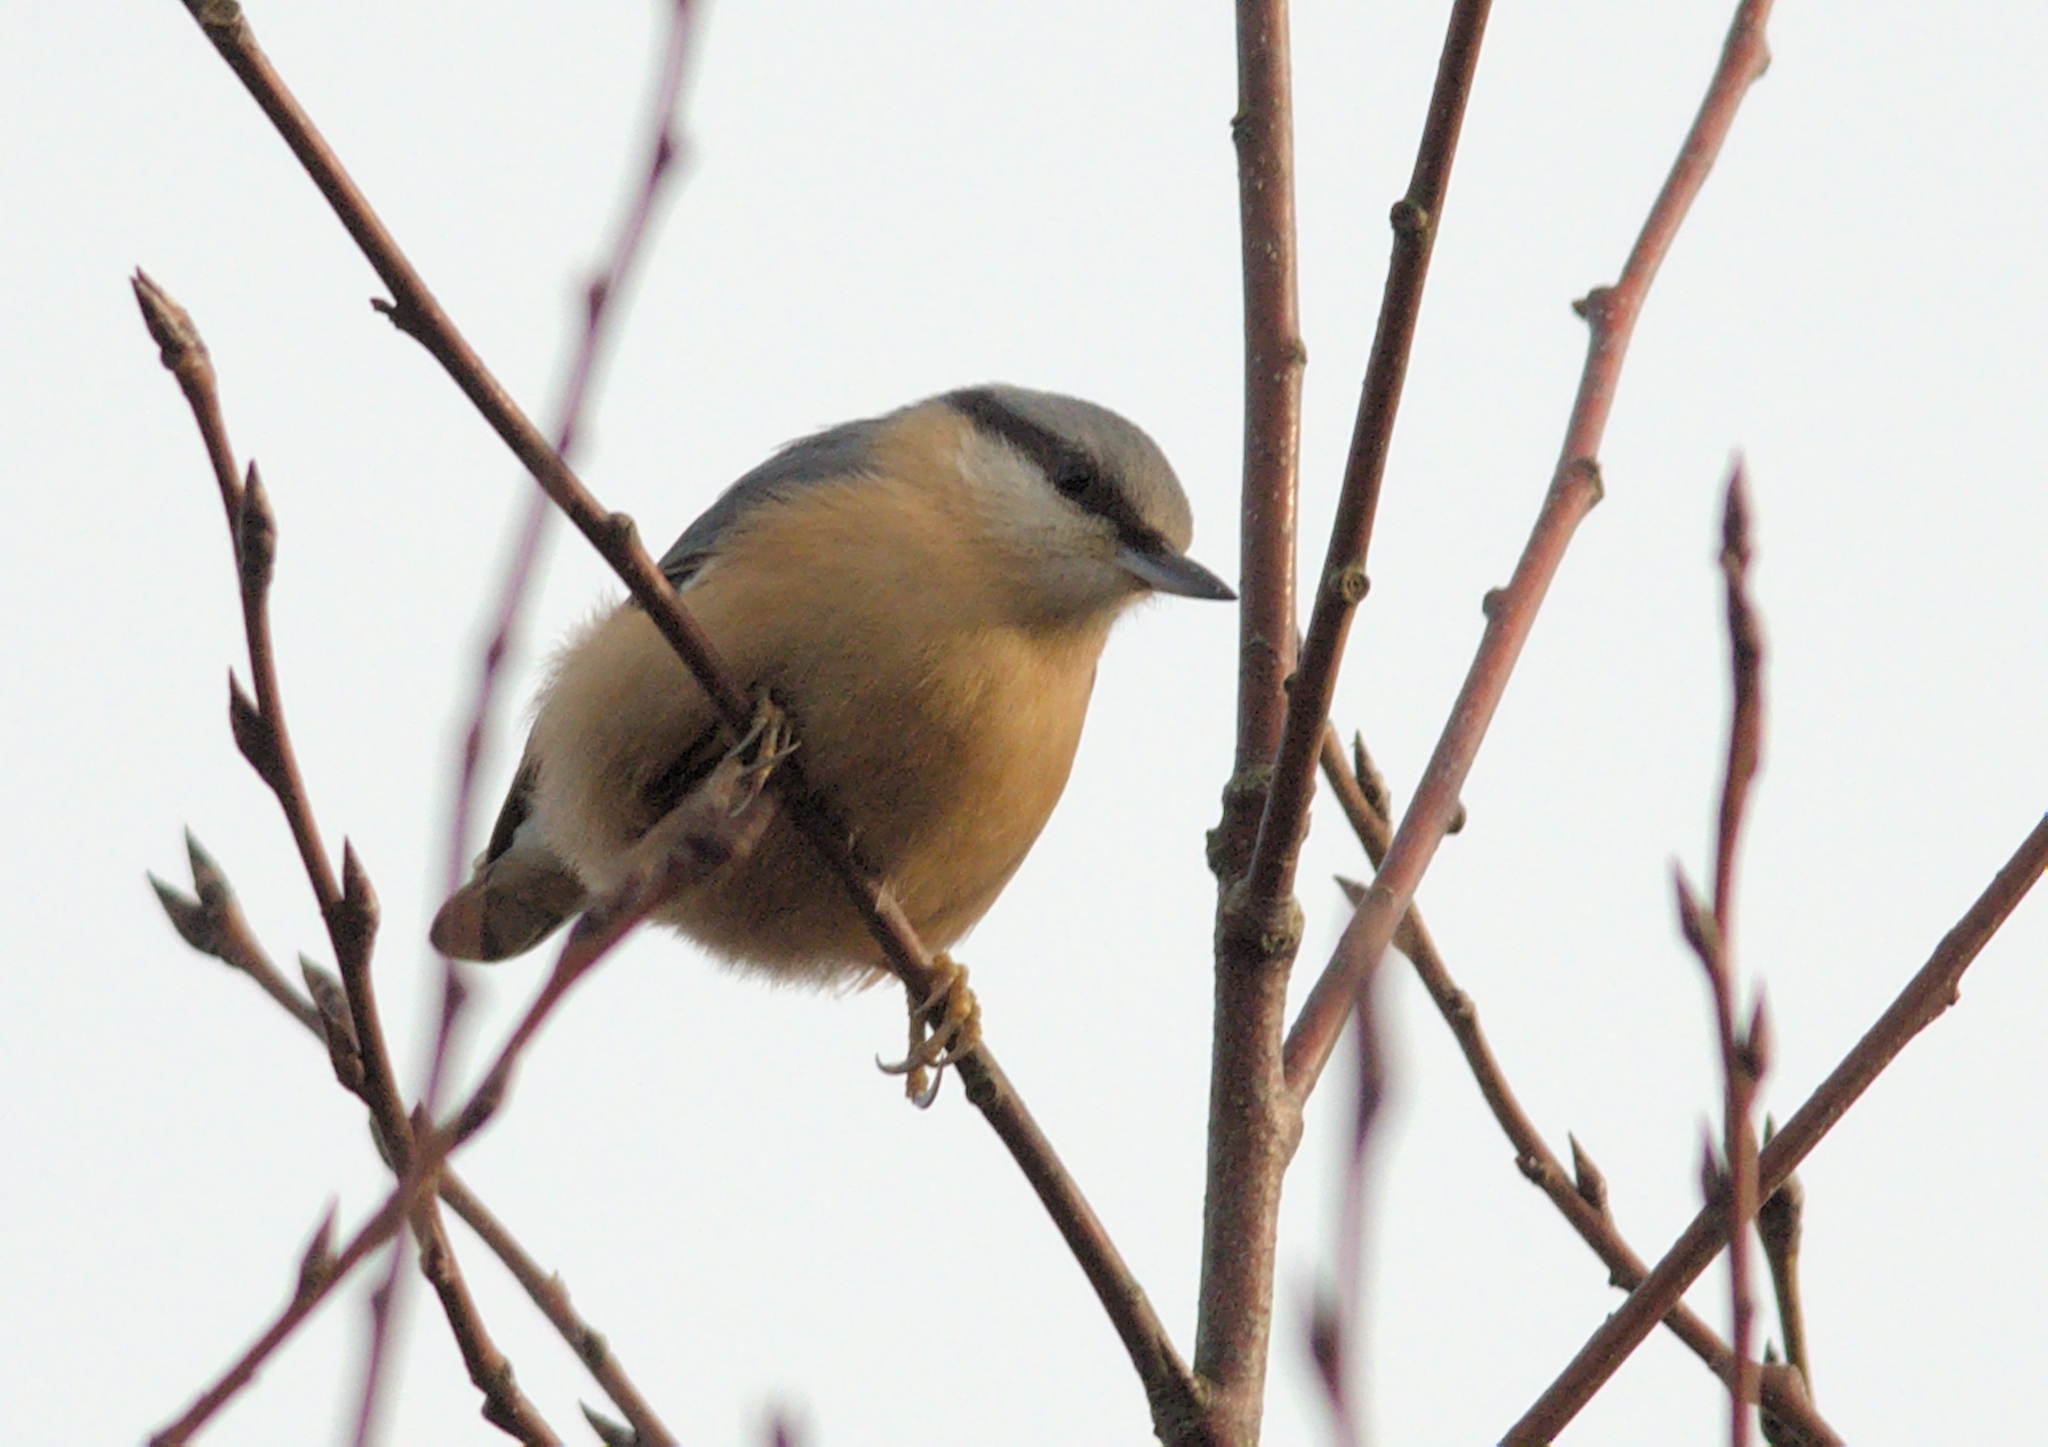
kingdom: Animalia
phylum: Chordata
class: Aves
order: Passeriformes
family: Sittidae
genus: Sitta
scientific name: Sitta europaea
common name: Eurasian nuthatch
